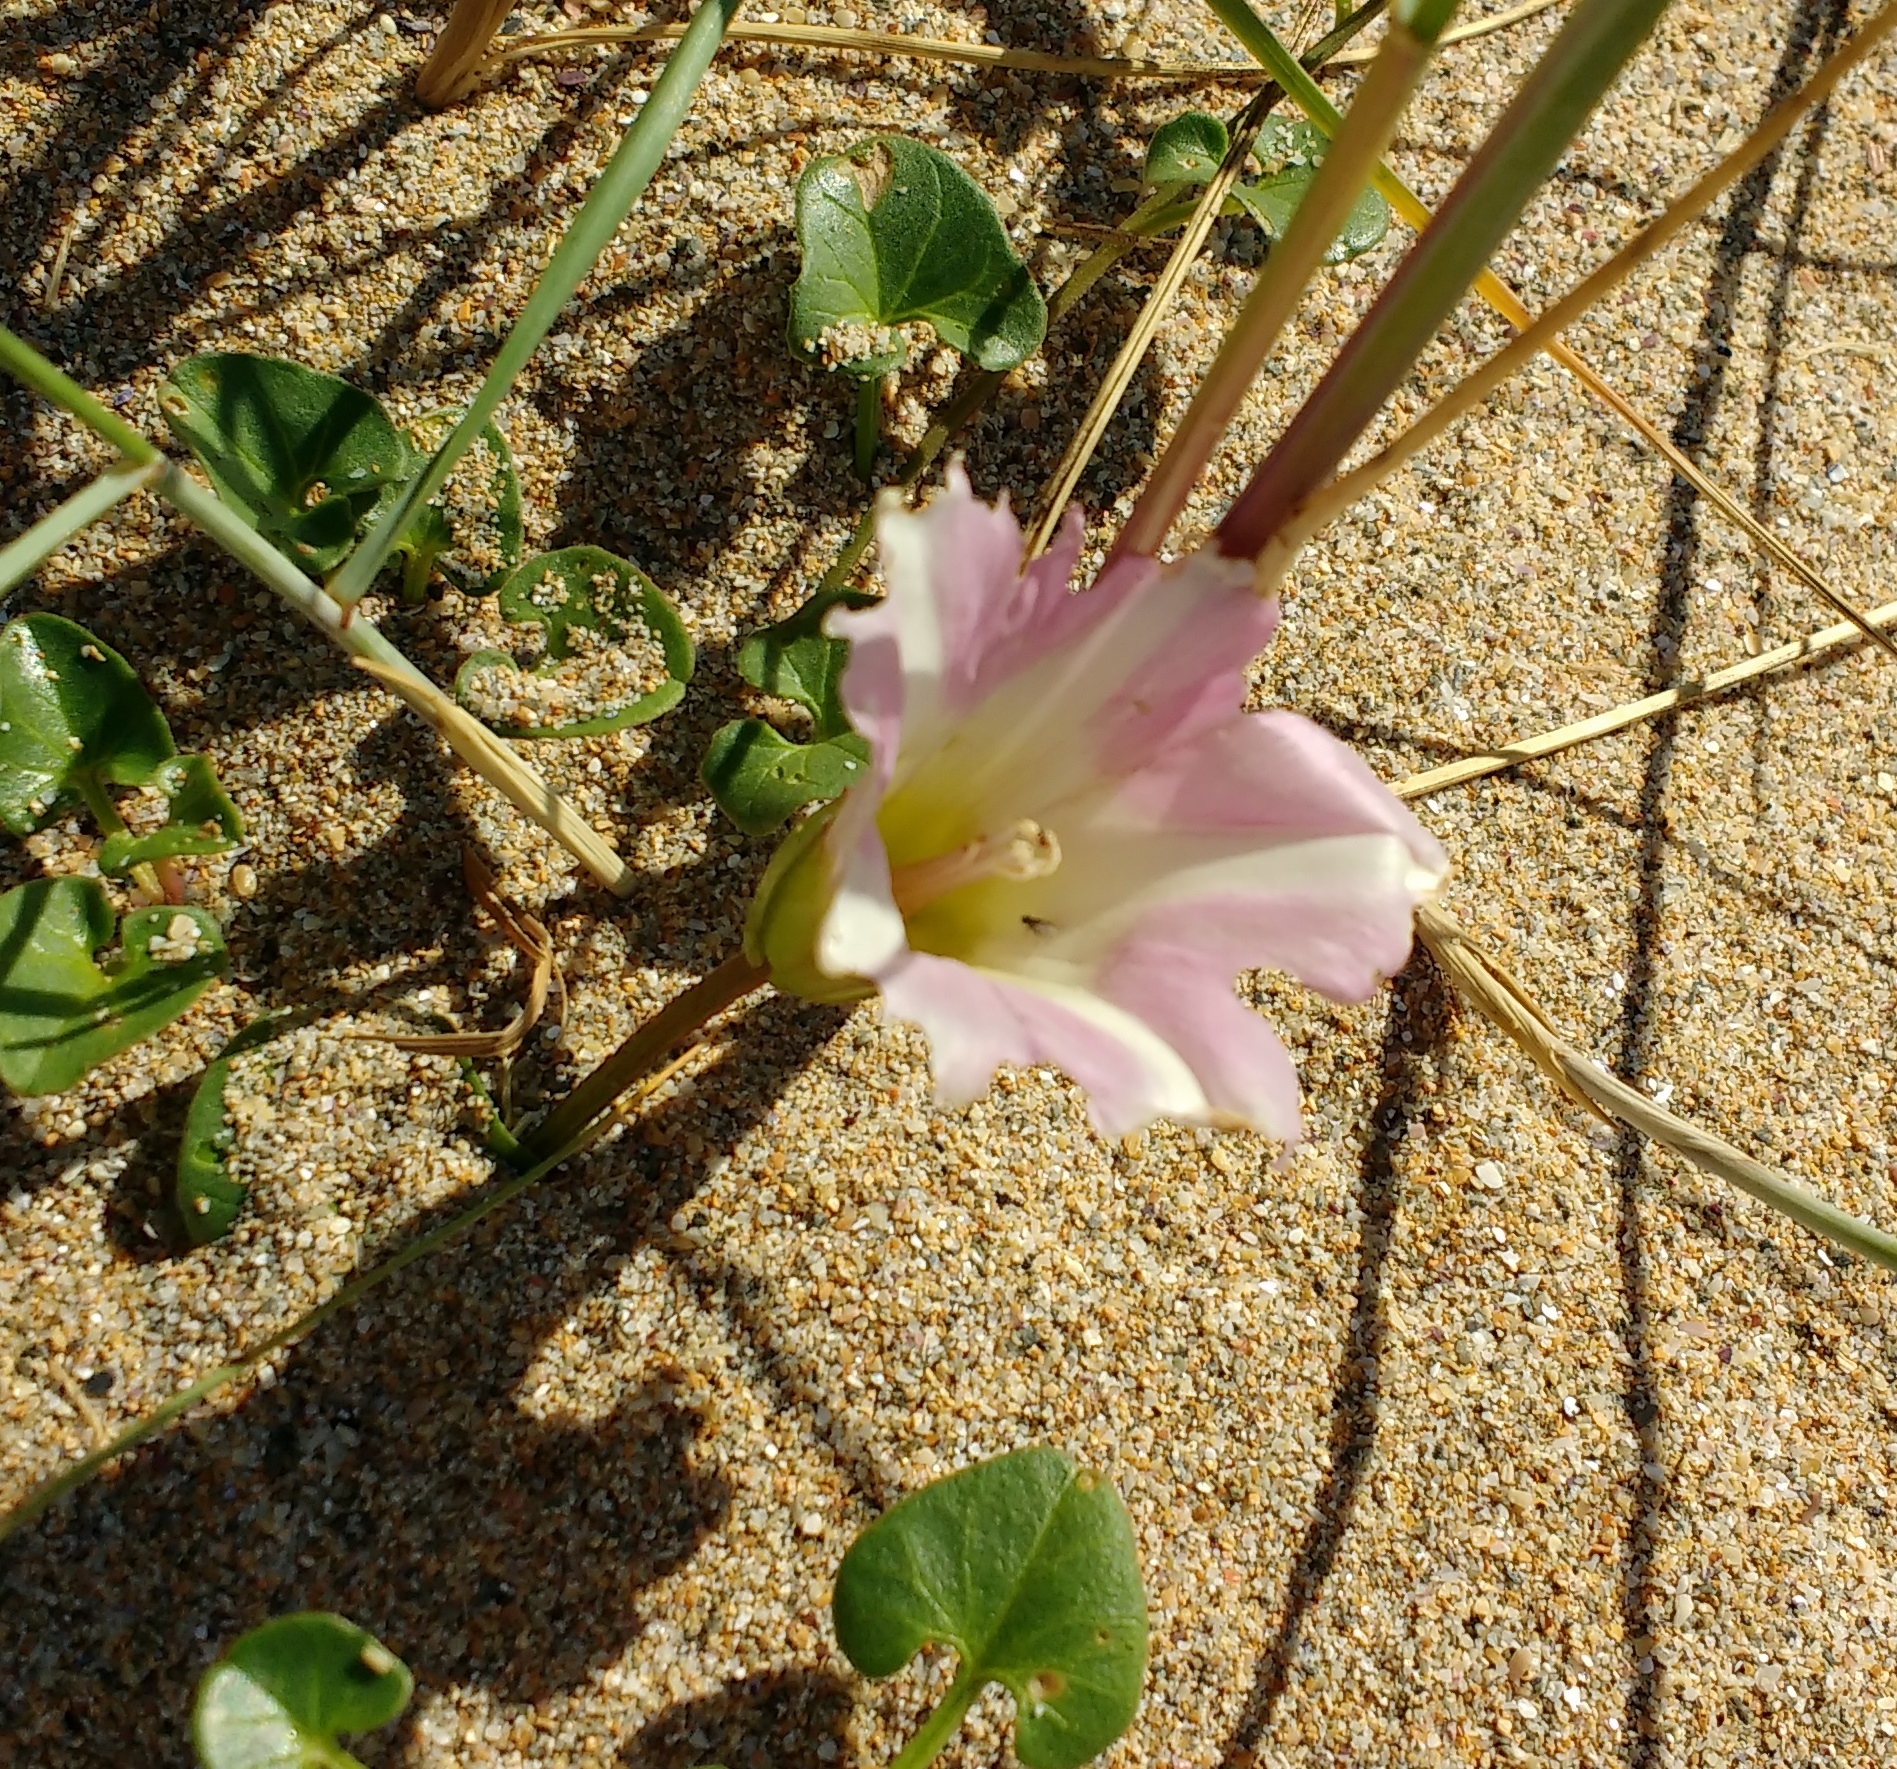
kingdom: Plantae
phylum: Tracheophyta
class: Magnoliopsida
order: Solanales
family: Convolvulaceae
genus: Calystegia
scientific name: Calystegia soldanella
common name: Sea bindweed
